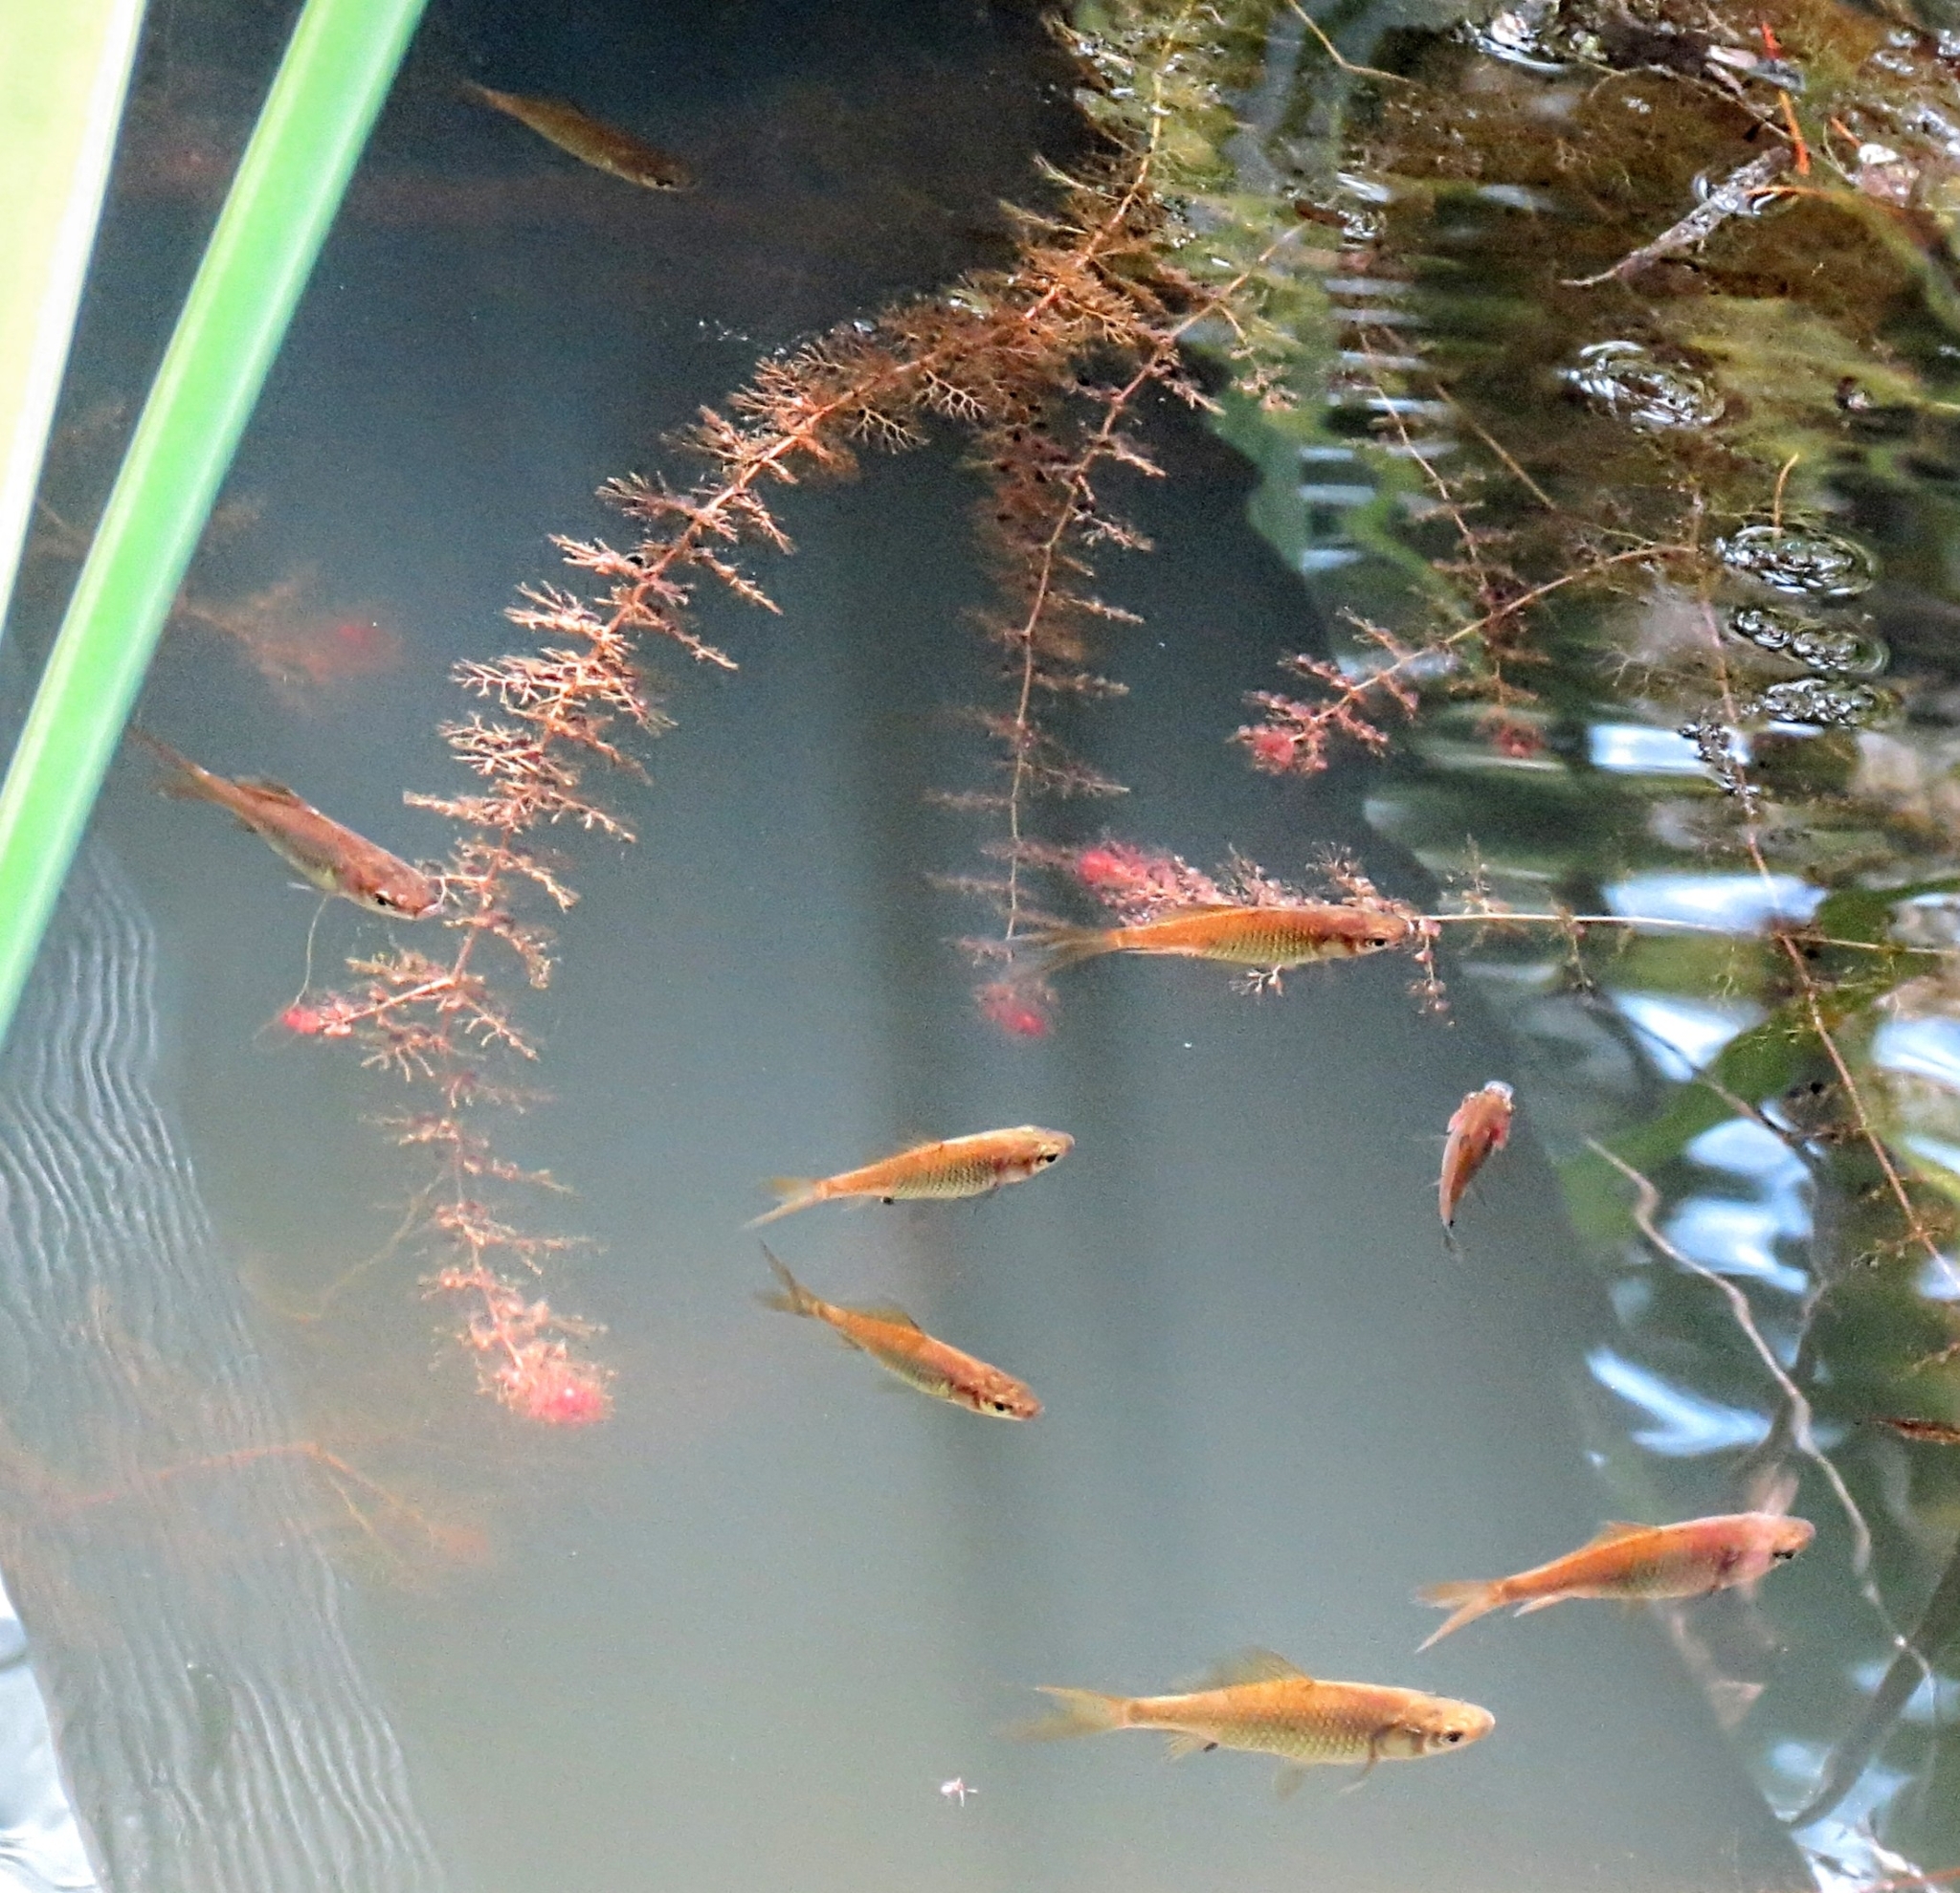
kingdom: Animalia
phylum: Chordata
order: Cypriniformes
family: Cyprinidae
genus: Carassius
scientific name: Carassius auratus
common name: Goldfish
